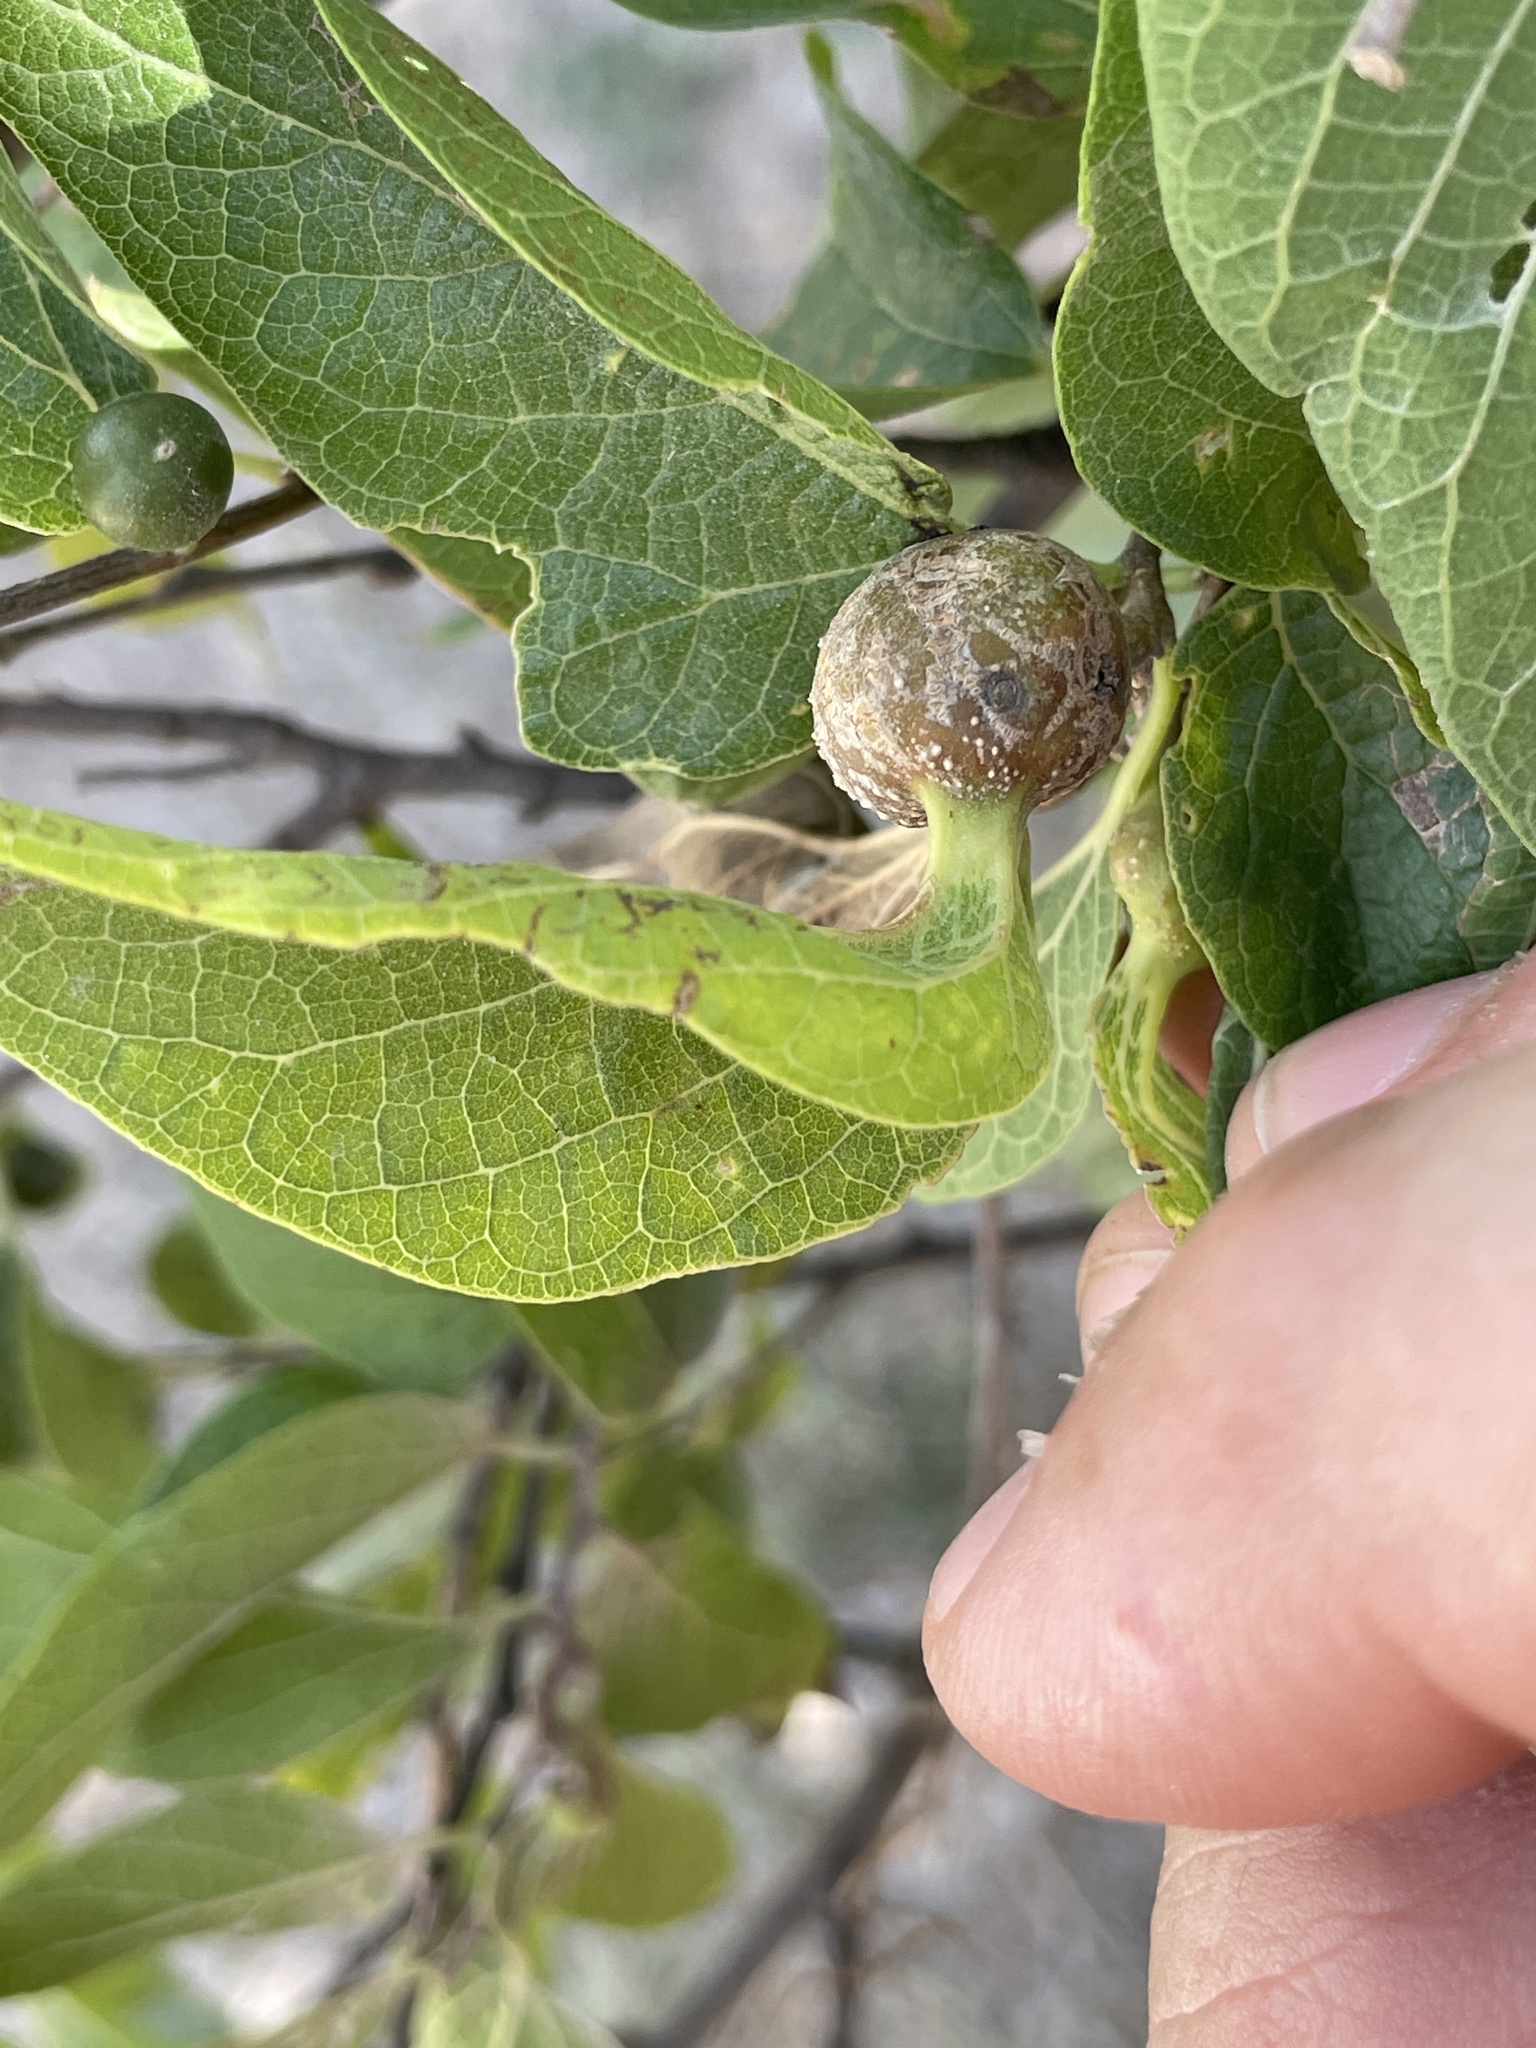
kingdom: Animalia
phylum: Arthropoda
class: Insecta
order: Hemiptera
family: Aphalaridae
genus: Pachypsylla
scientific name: Pachypsylla venusta
